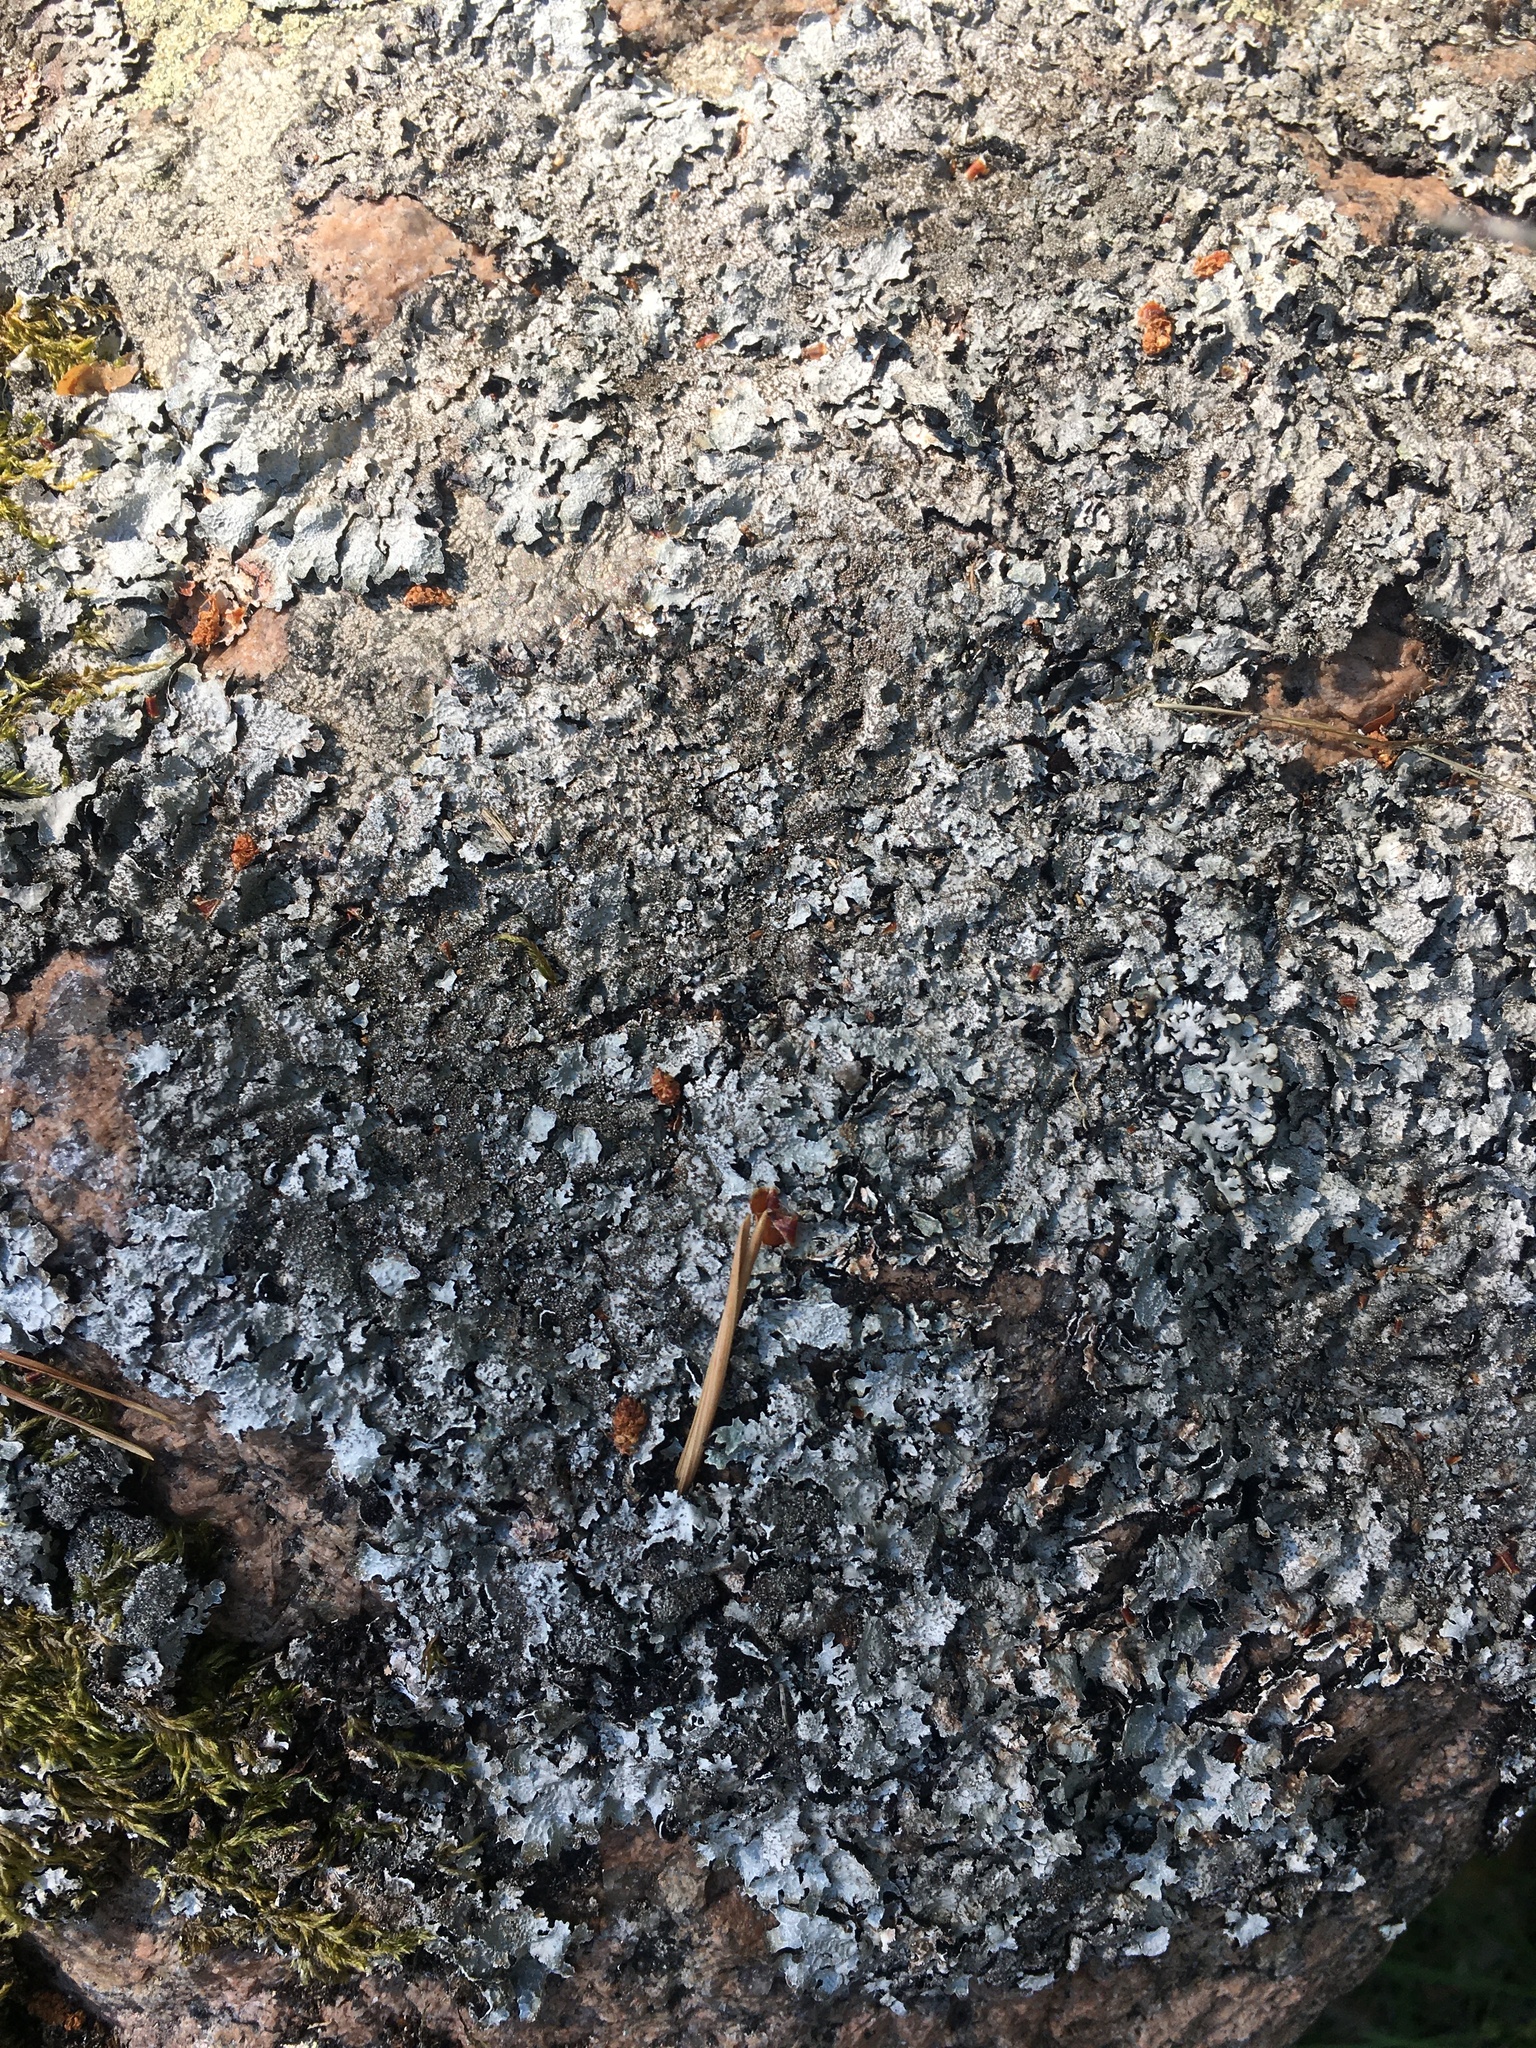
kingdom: Fungi
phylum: Ascomycota
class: Lecanoromycetes
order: Lecanorales
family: Parmeliaceae
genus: Parmelia
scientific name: Parmelia saxatilis
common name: Salted shield lichen
